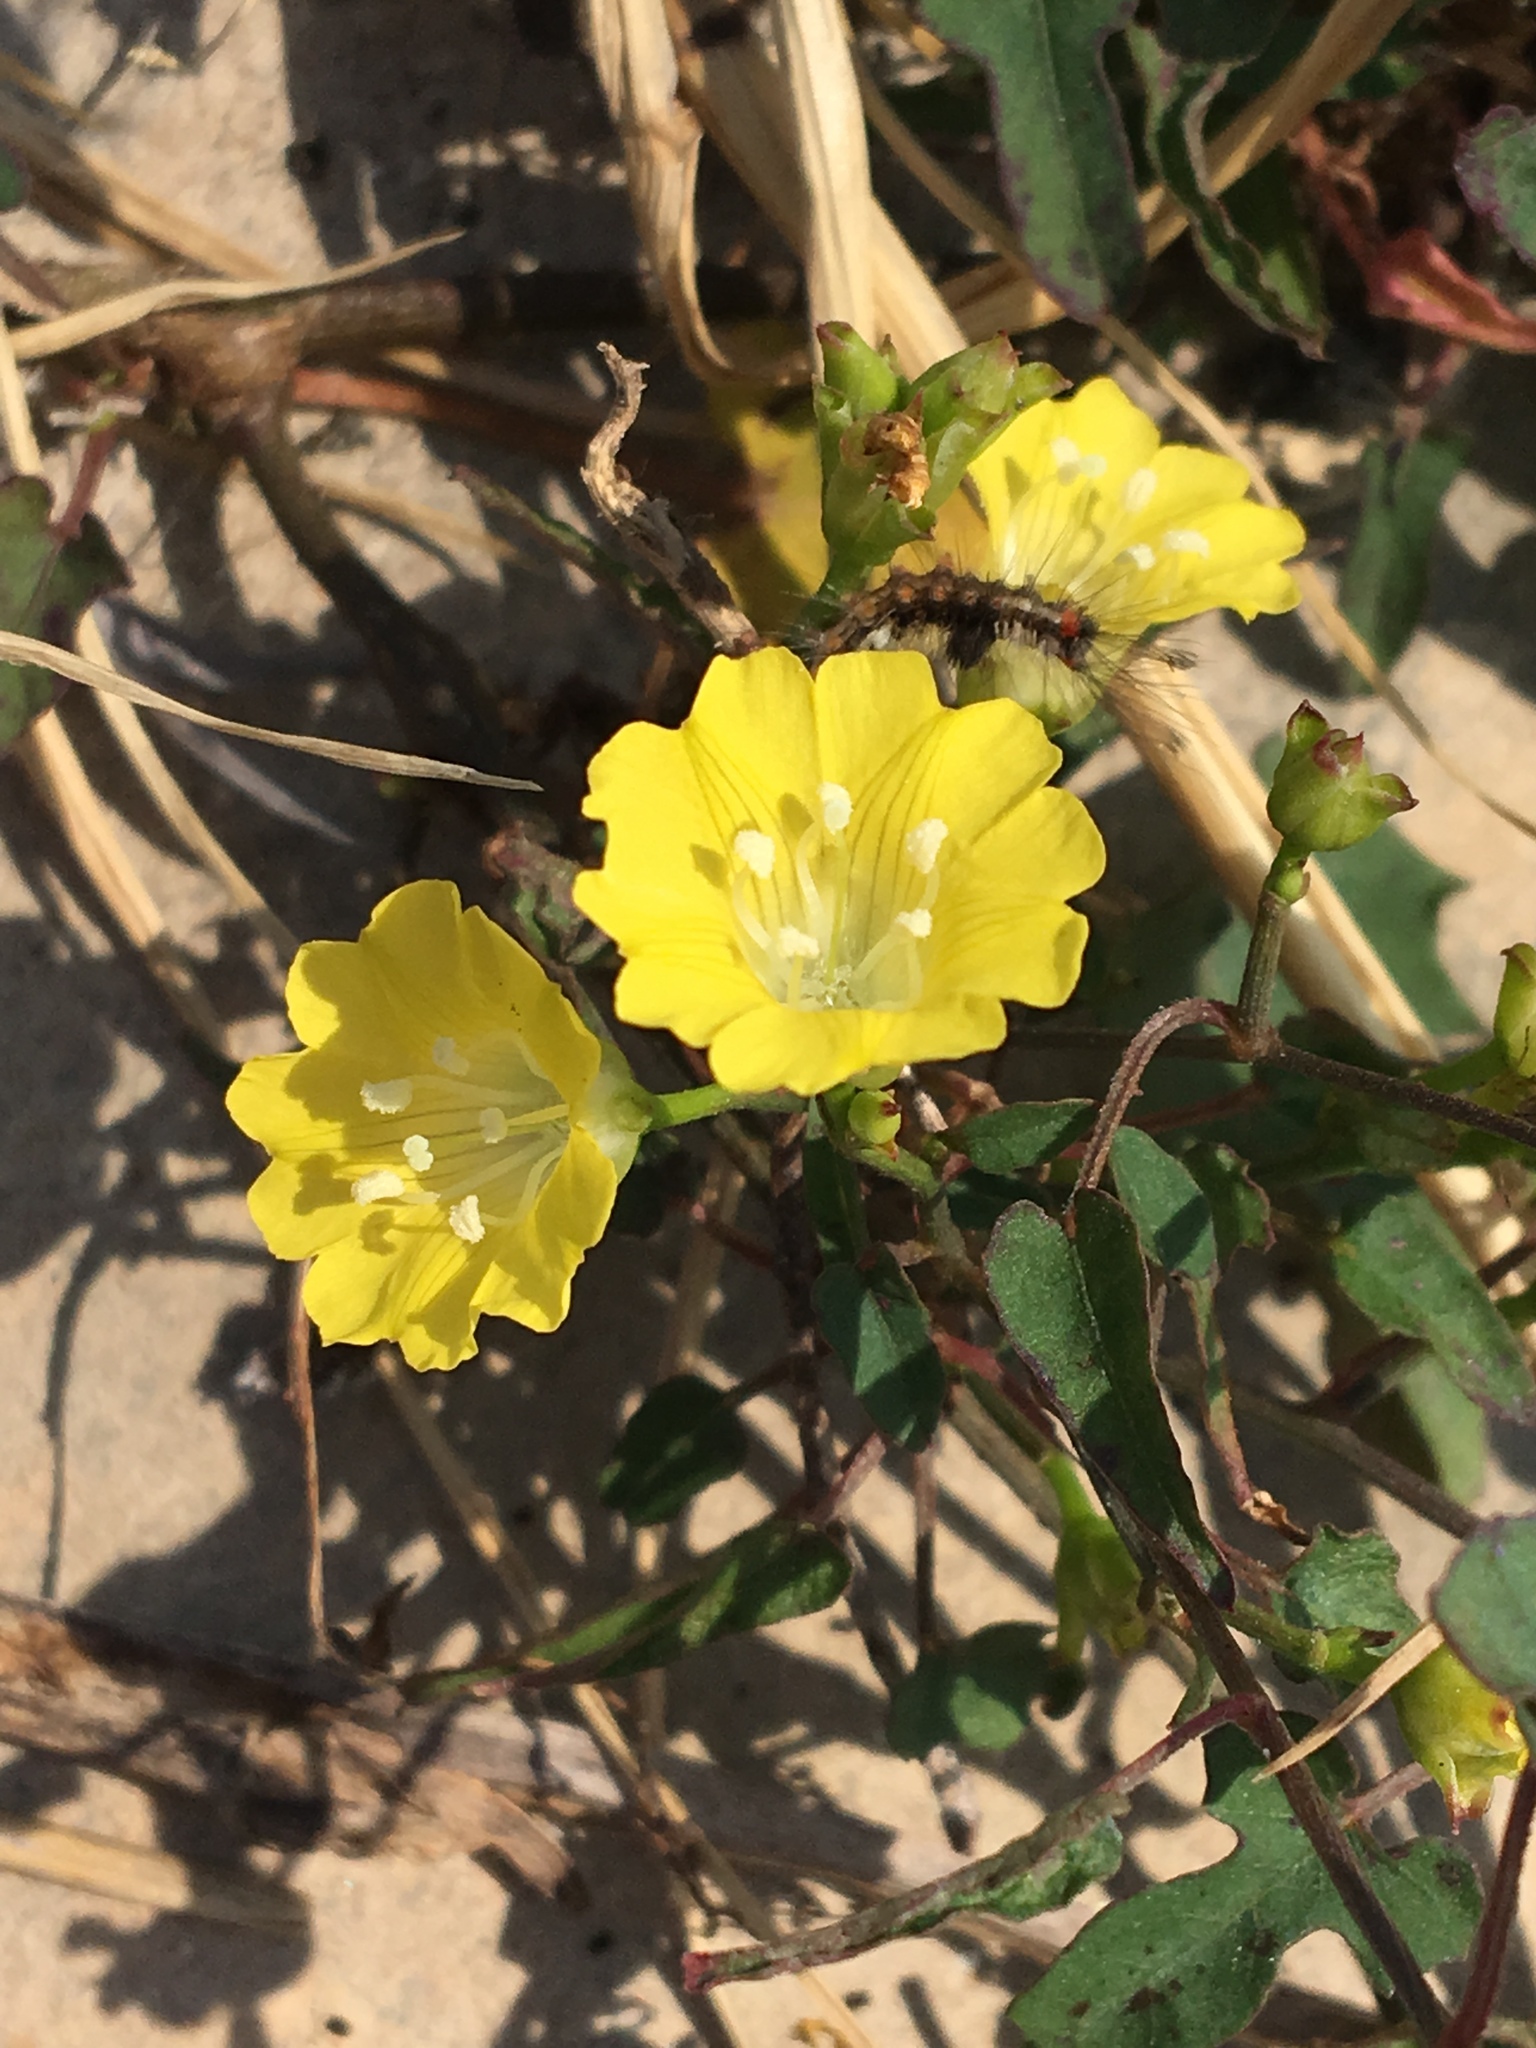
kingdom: Plantae
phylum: Tracheophyta
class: Magnoliopsida
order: Solanales
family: Convolvulaceae
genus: Merremia
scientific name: Merremia hederacea
